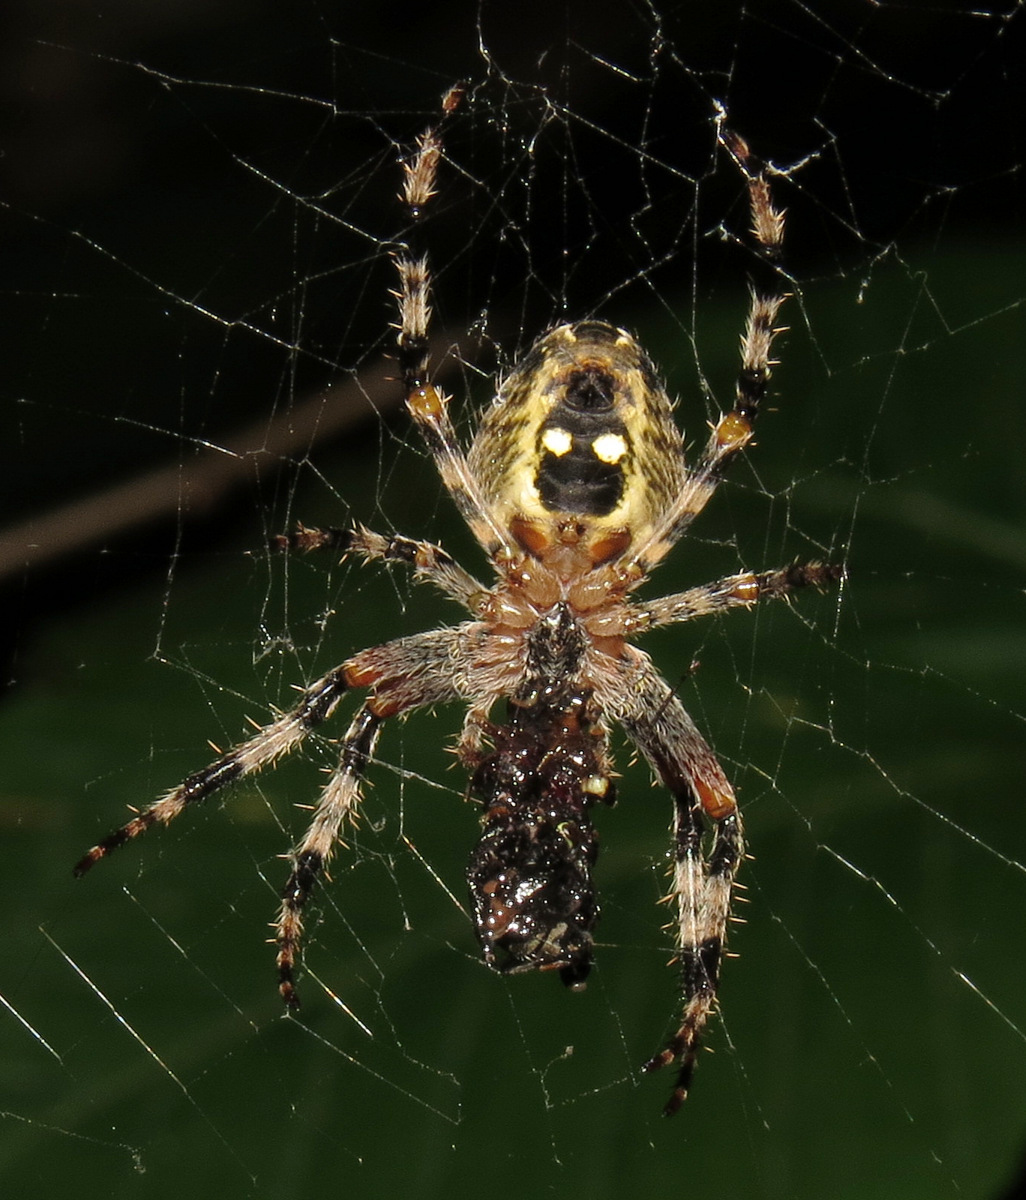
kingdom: Animalia
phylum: Arthropoda
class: Arachnida
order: Araneae
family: Araneidae
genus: Araneus
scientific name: Araneus nordmanni
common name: Nordmann's orbweaver
